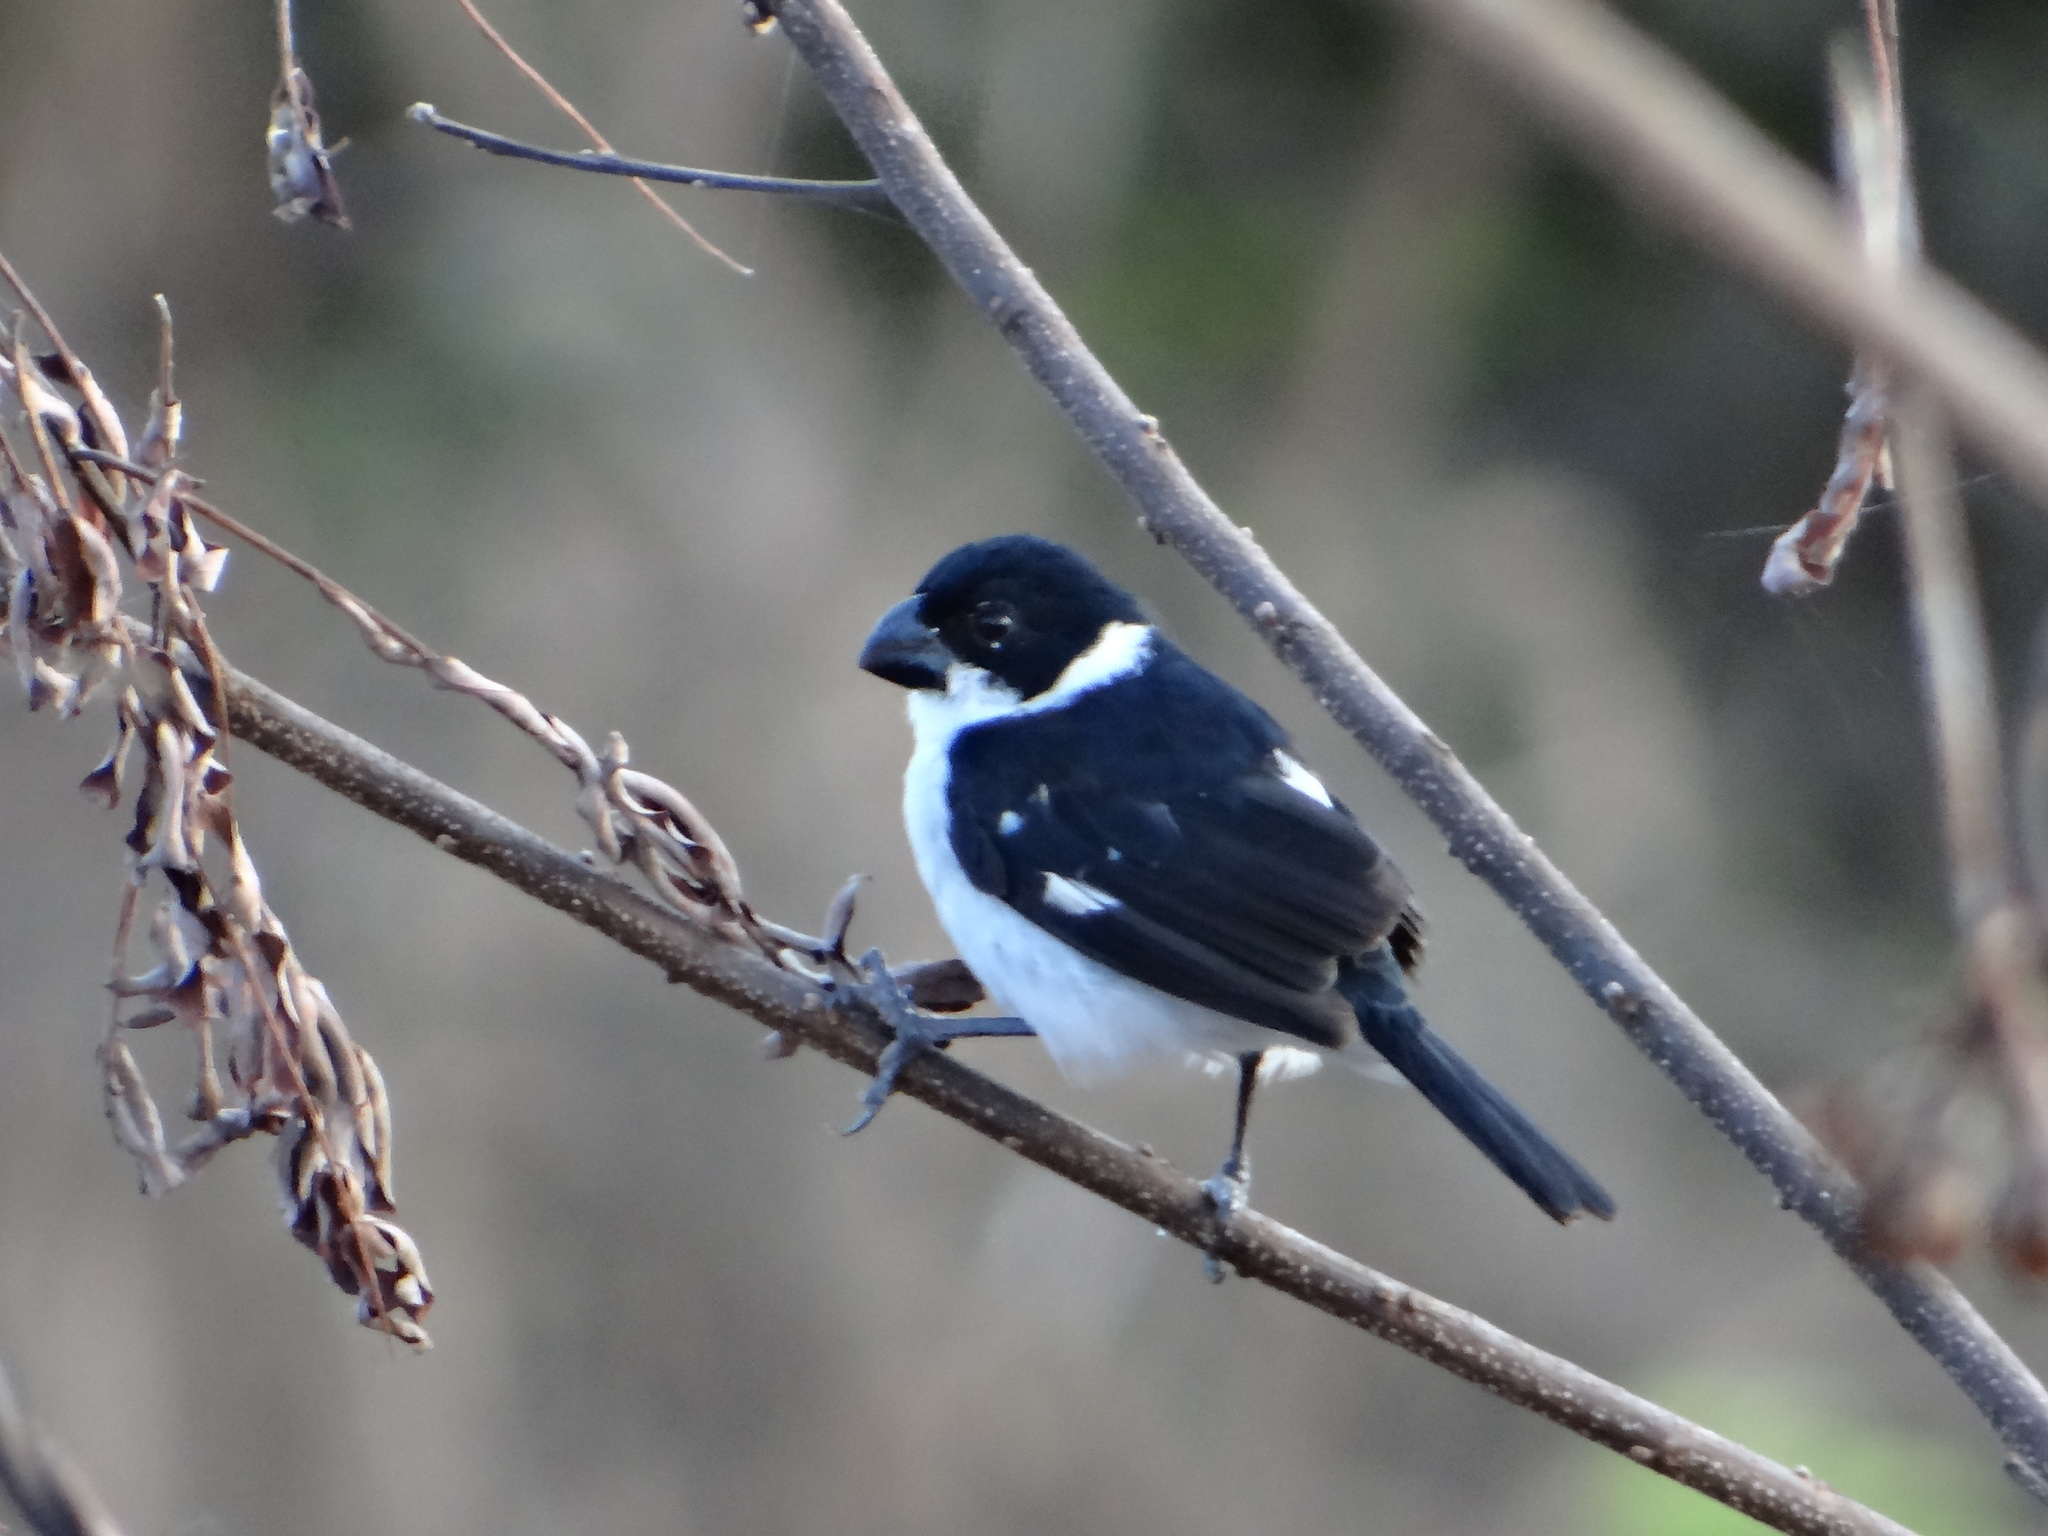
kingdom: Animalia
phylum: Chordata
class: Aves
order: Passeriformes
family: Thraupidae
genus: Sporophila
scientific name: Sporophila americana
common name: Wing-barred seedeater
